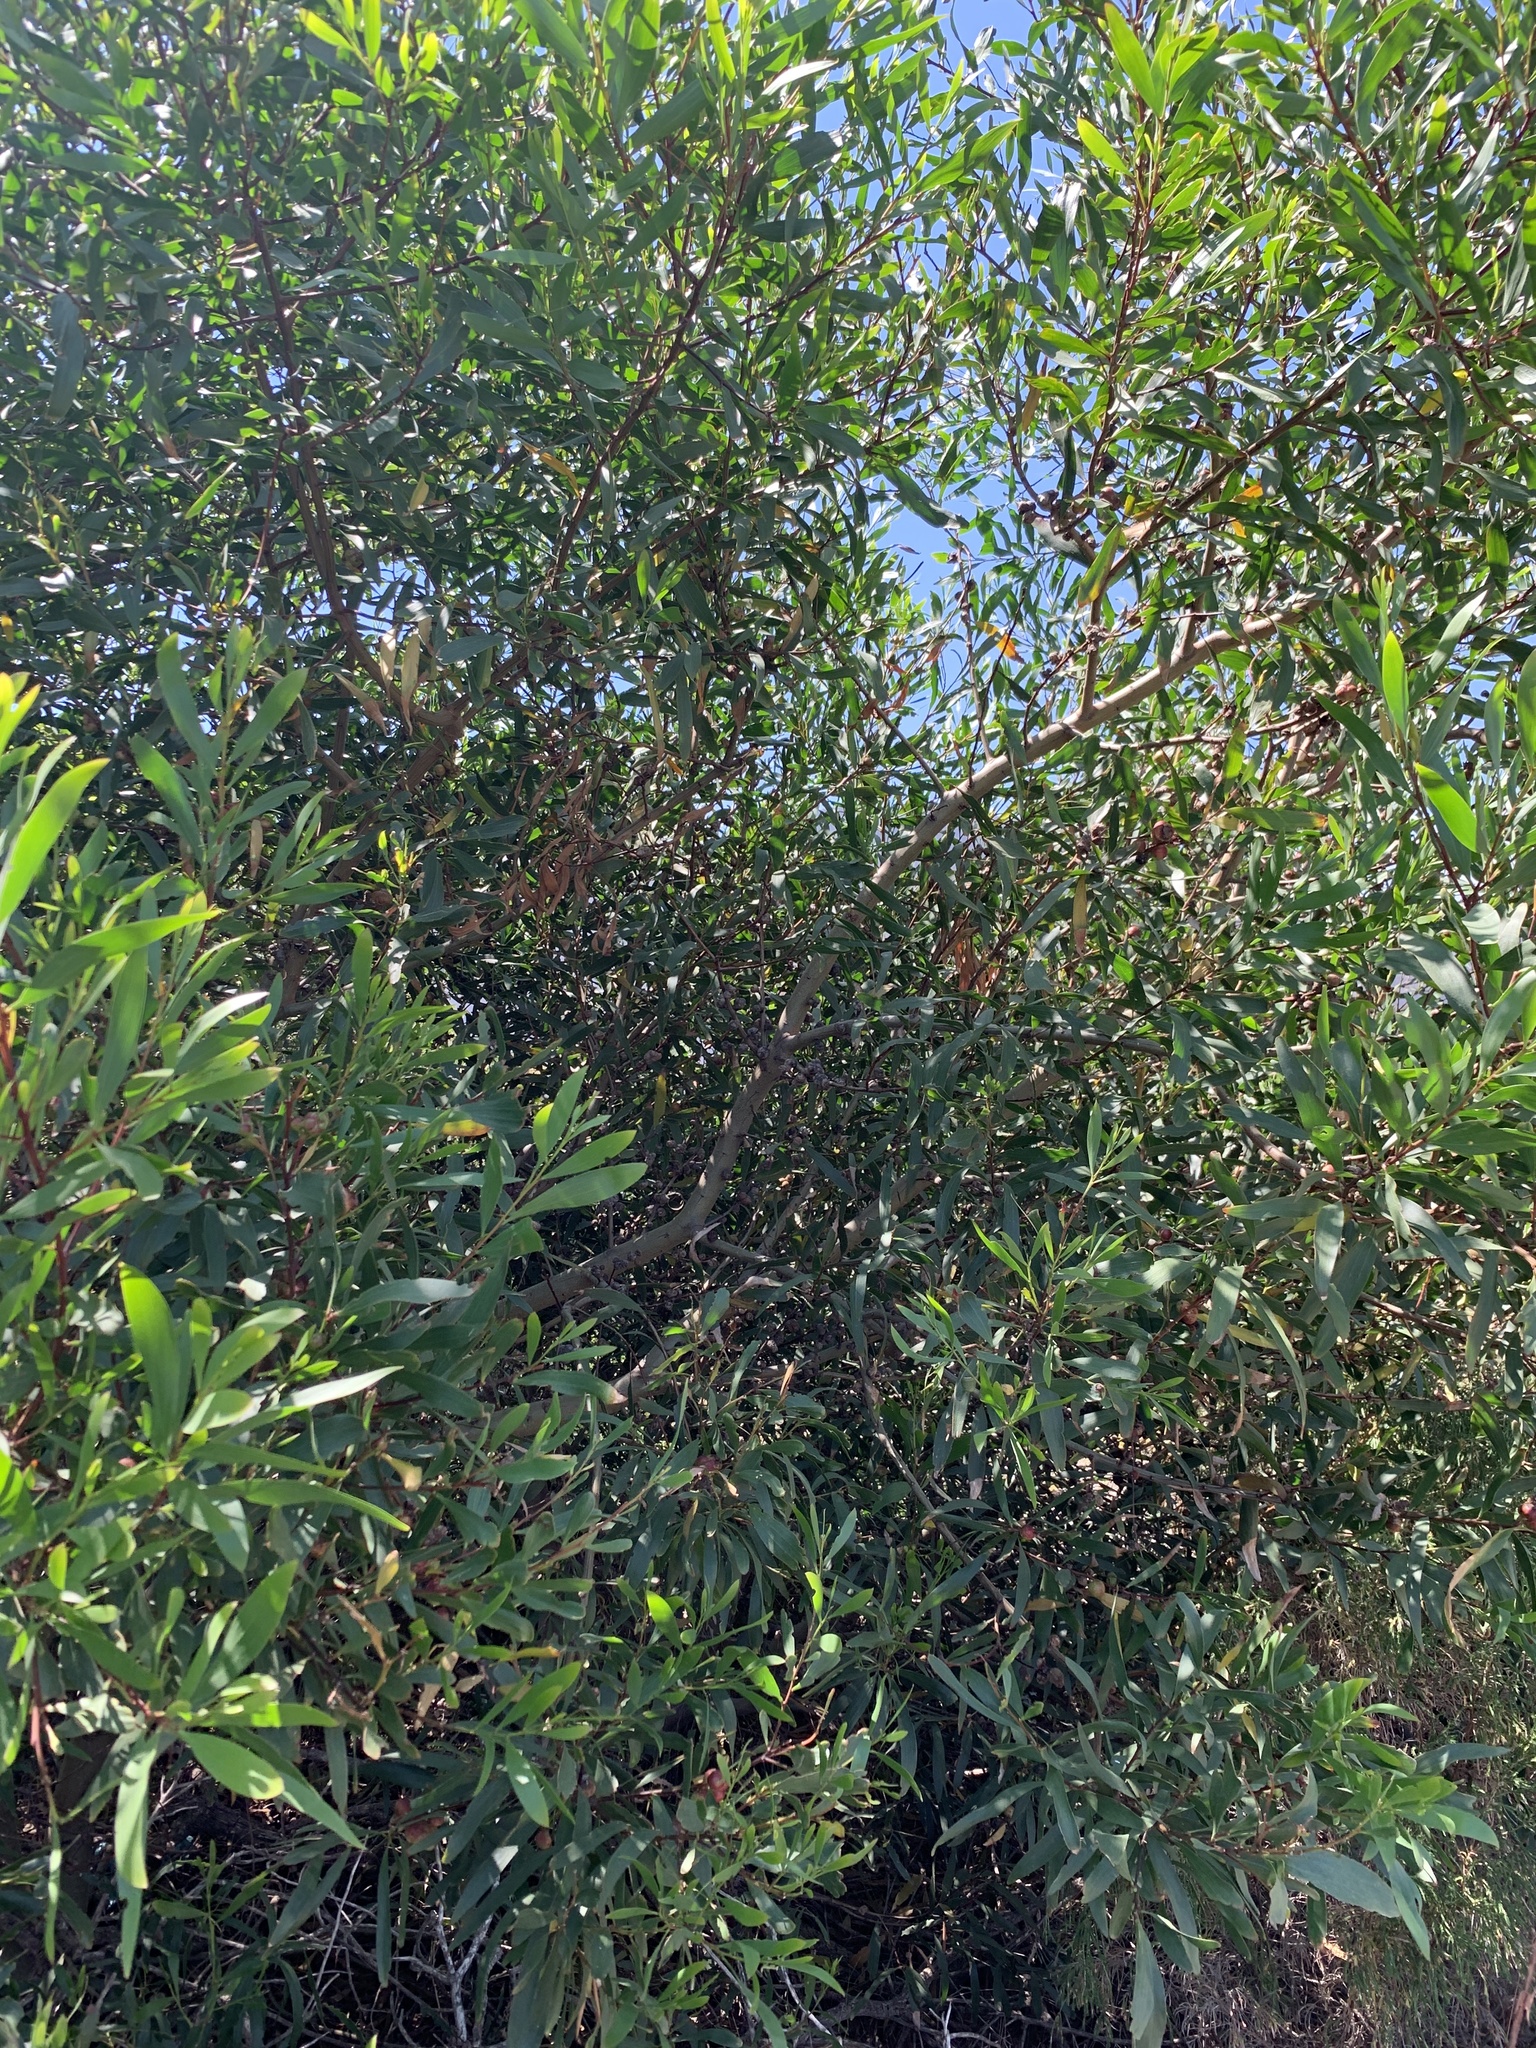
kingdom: Plantae
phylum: Tracheophyta
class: Magnoliopsida
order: Fabales
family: Fabaceae
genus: Acacia
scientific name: Acacia longifolia
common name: Sydney golden wattle
